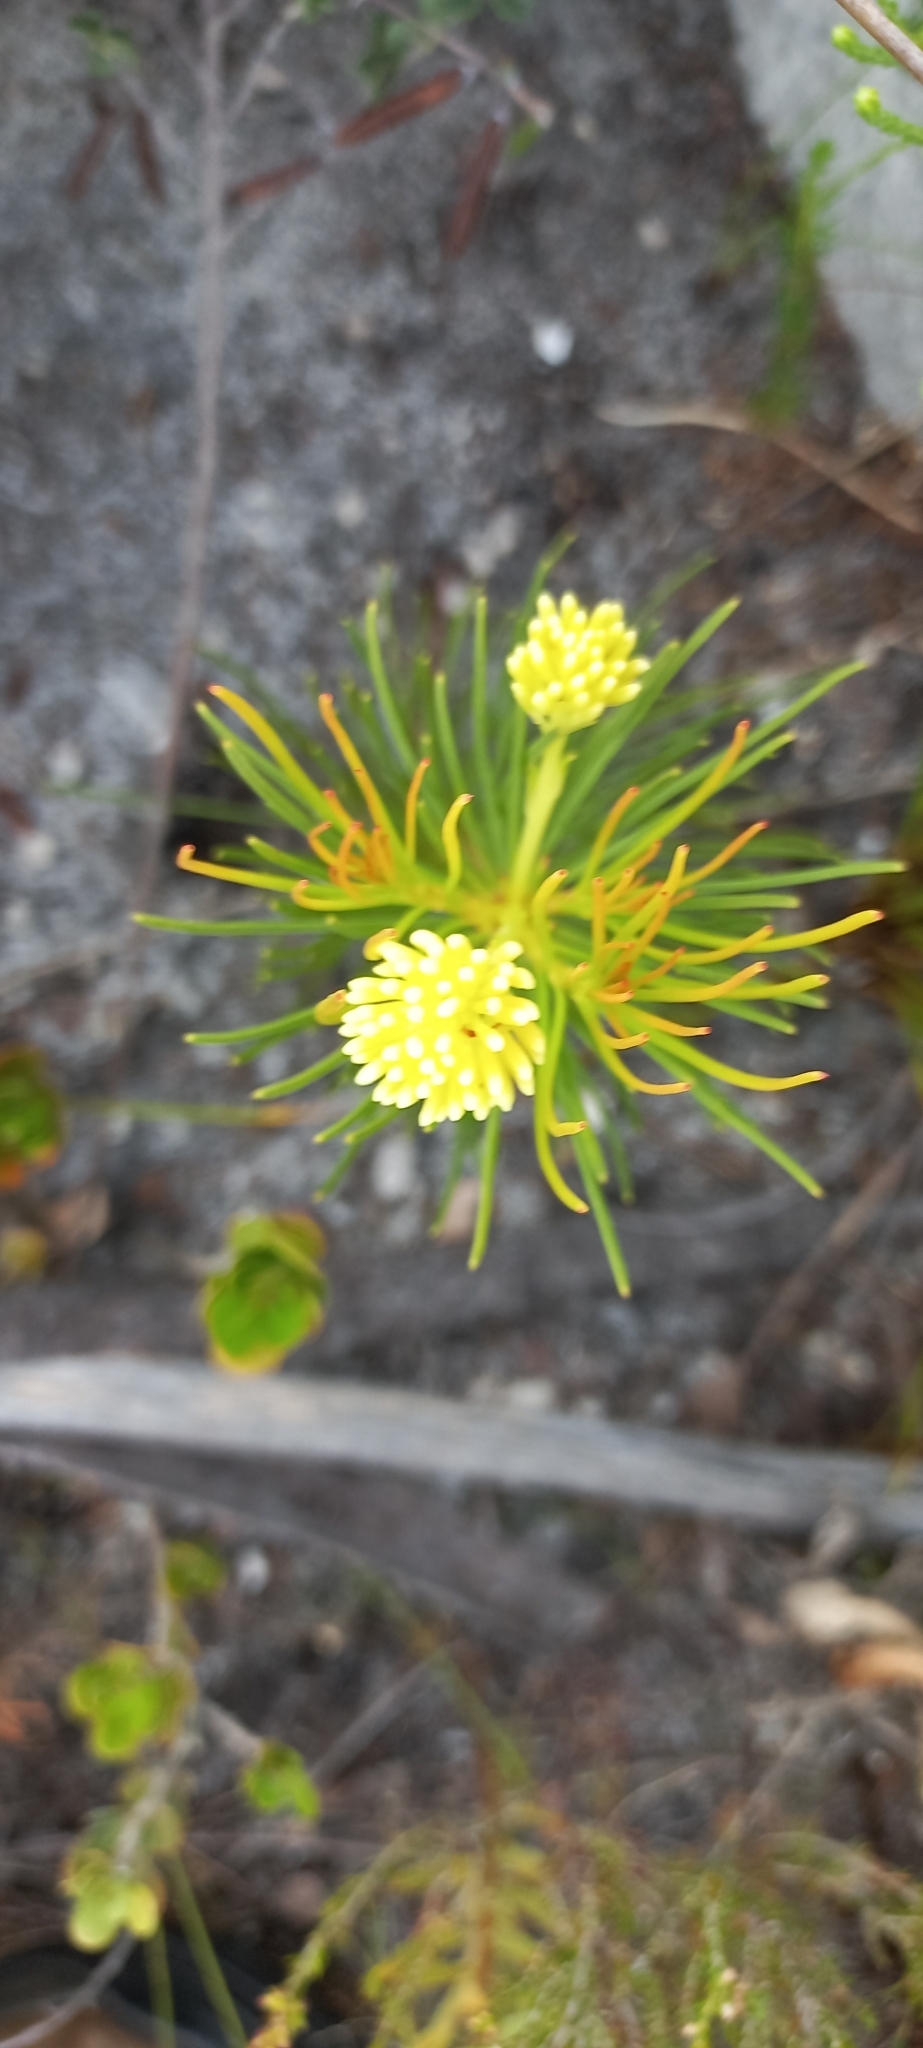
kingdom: Plantae
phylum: Tracheophyta
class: Magnoliopsida
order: Proteales
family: Proteaceae
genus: Aulax
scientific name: Aulax cancellata
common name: Channel-leaf featherbush
